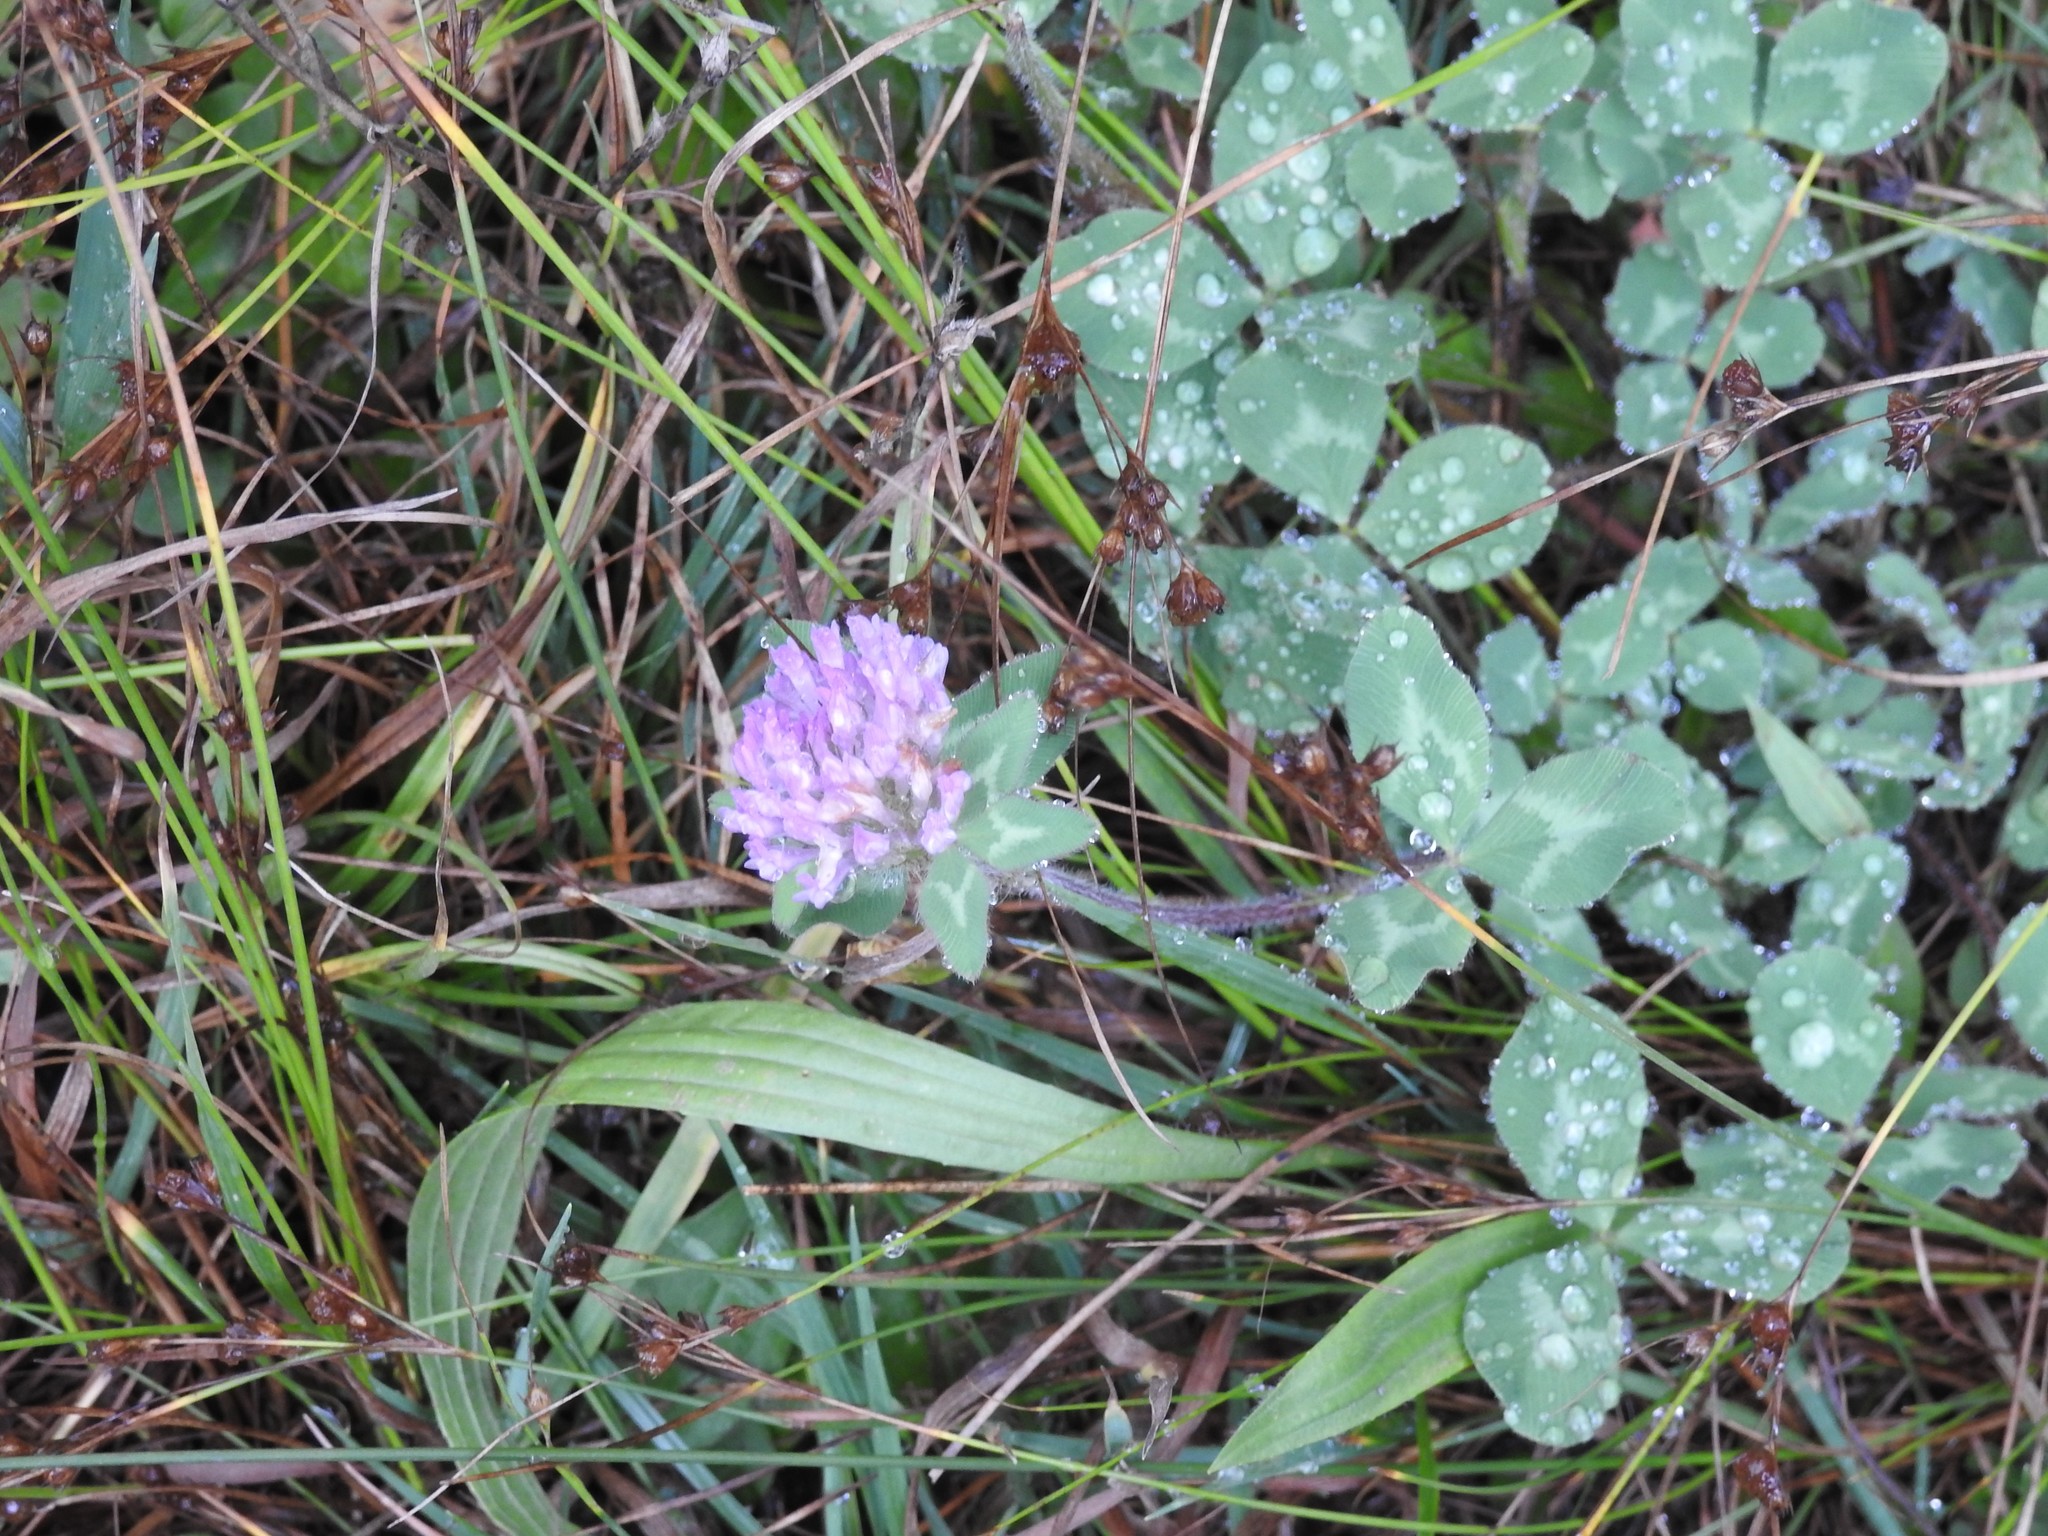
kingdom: Plantae
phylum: Tracheophyta
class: Magnoliopsida
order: Fabales
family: Fabaceae
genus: Trifolium
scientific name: Trifolium pratense
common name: Red clover
